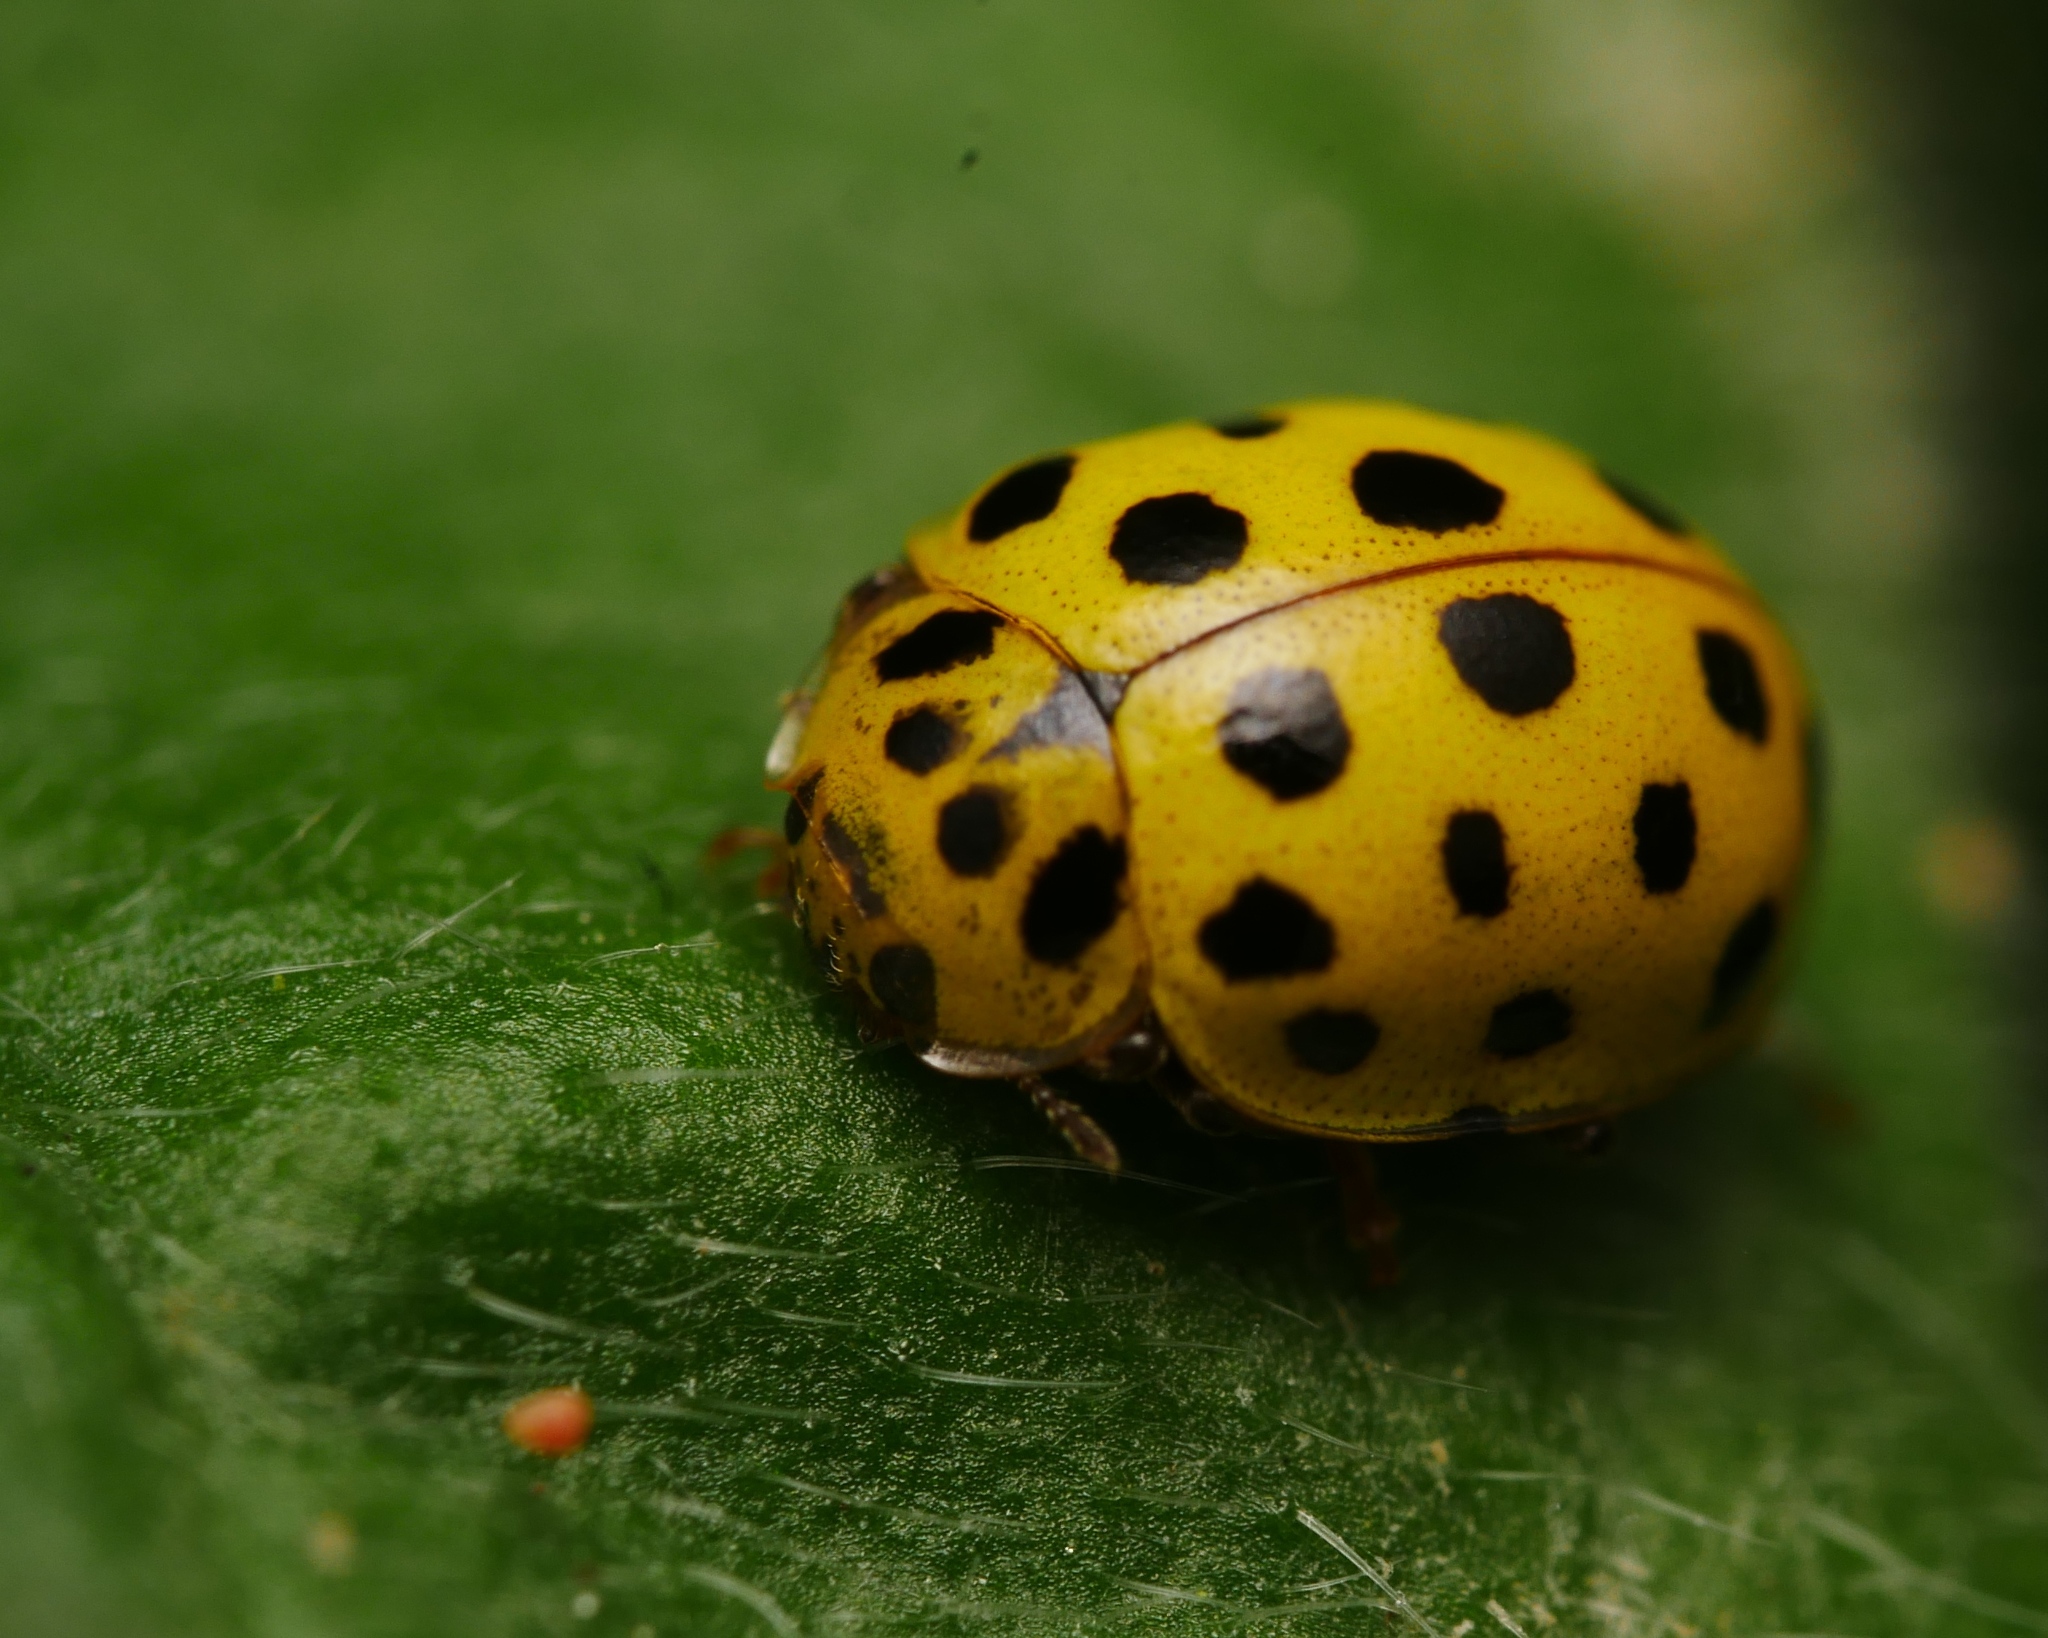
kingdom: Animalia
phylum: Arthropoda
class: Insecta
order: Coleoptera
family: Coccinellidae
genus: Psyllobora
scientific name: Psyllobora vigintiduopunctata
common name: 22-spot ladybird
